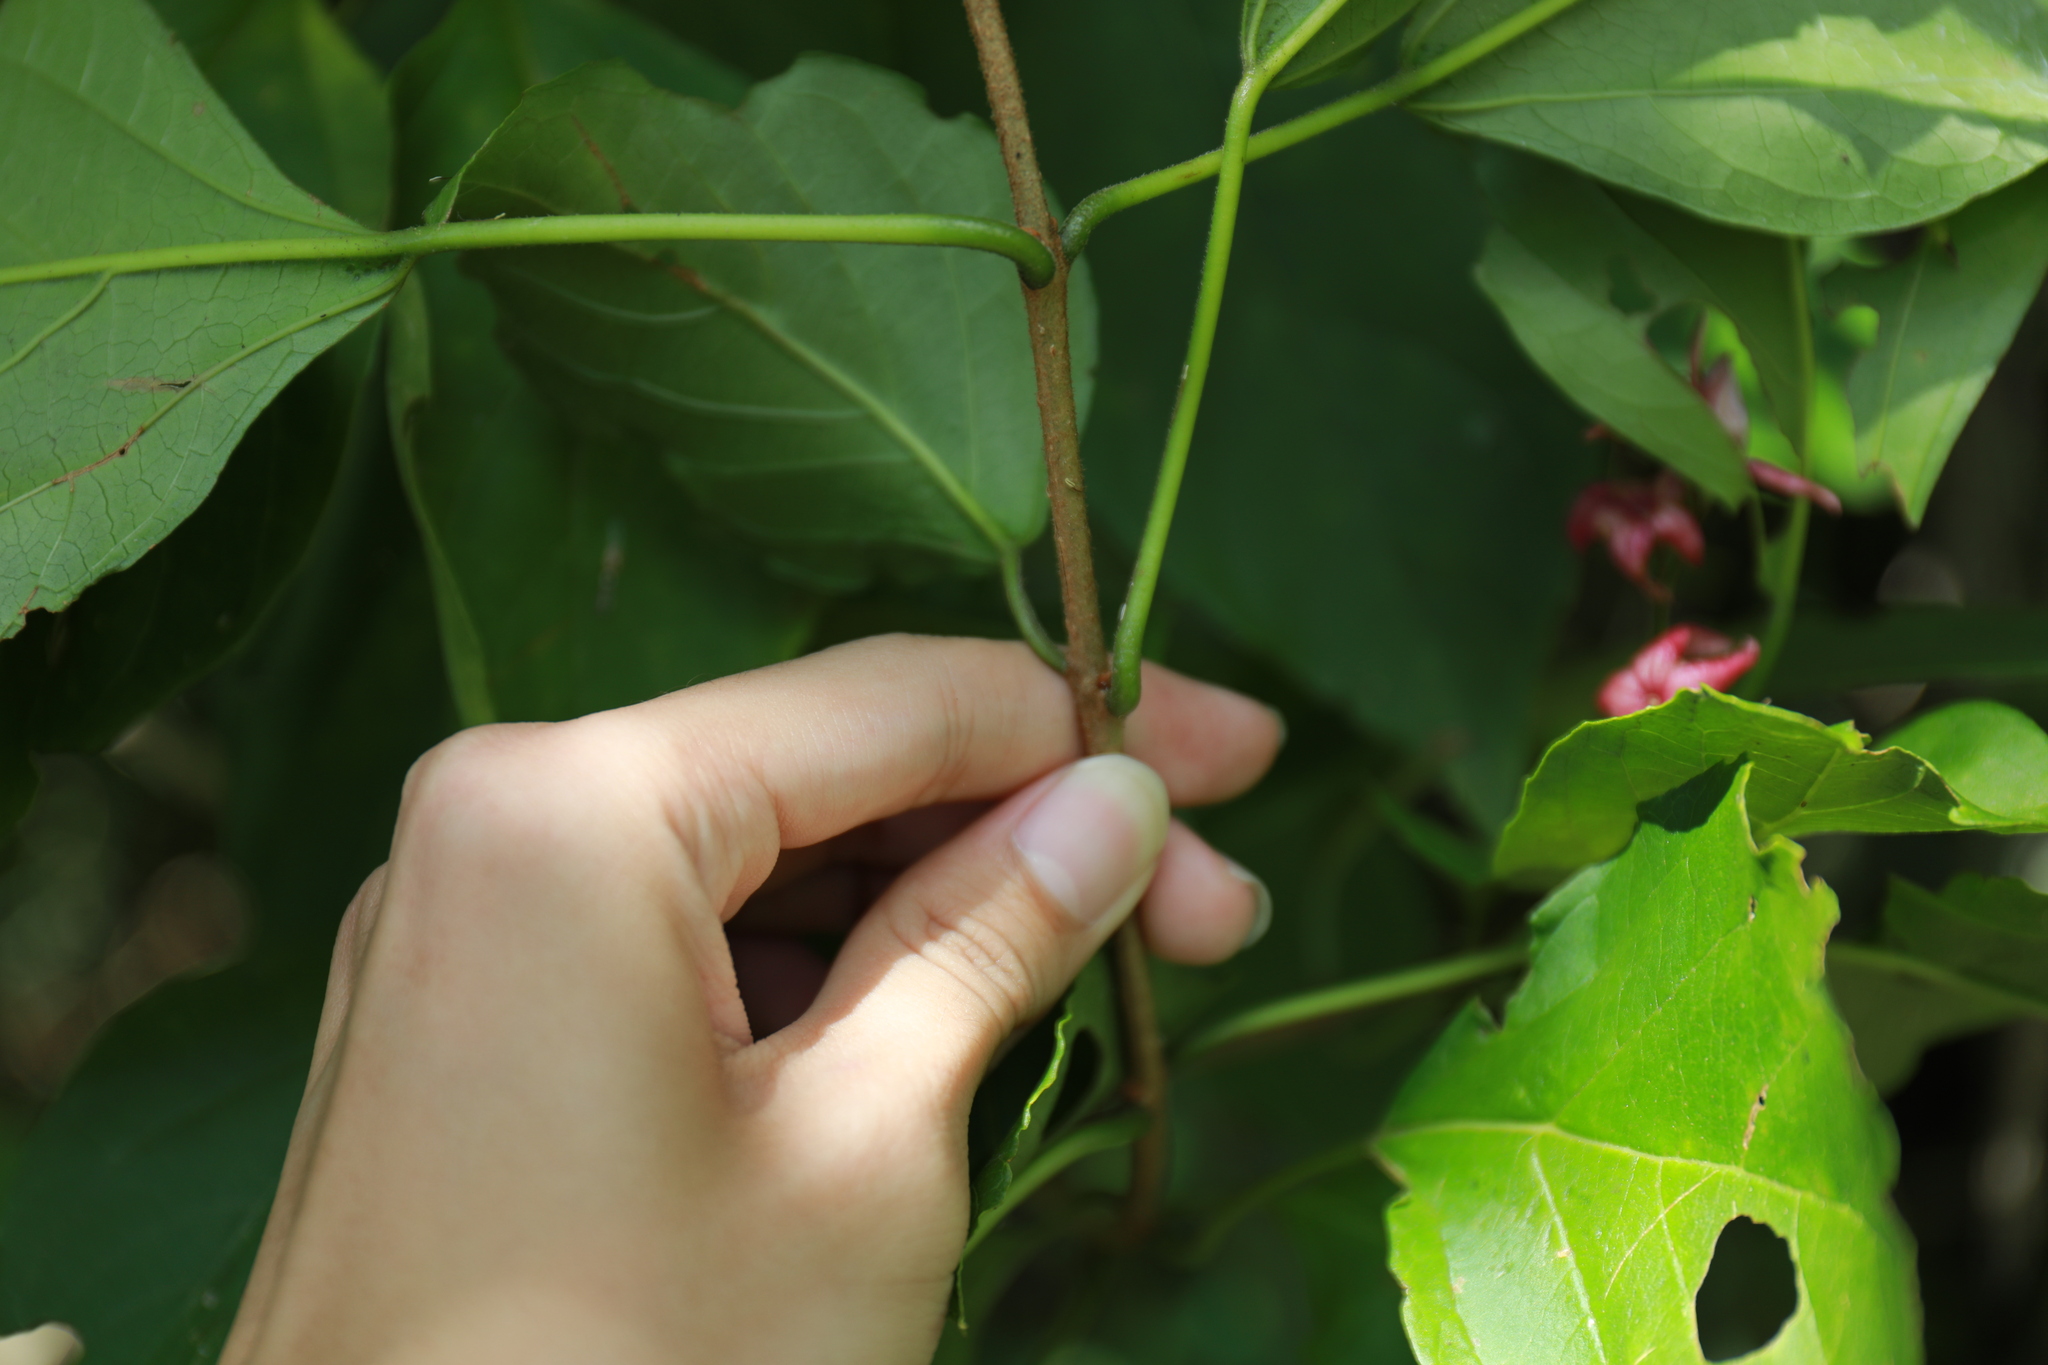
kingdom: Plantae
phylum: Tracheophyta
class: Magnoliopsida
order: Lamiales
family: Lamiaceae
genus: Clerodendrum
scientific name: Clerodendrum trichotomum
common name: Harlequin glorybower
